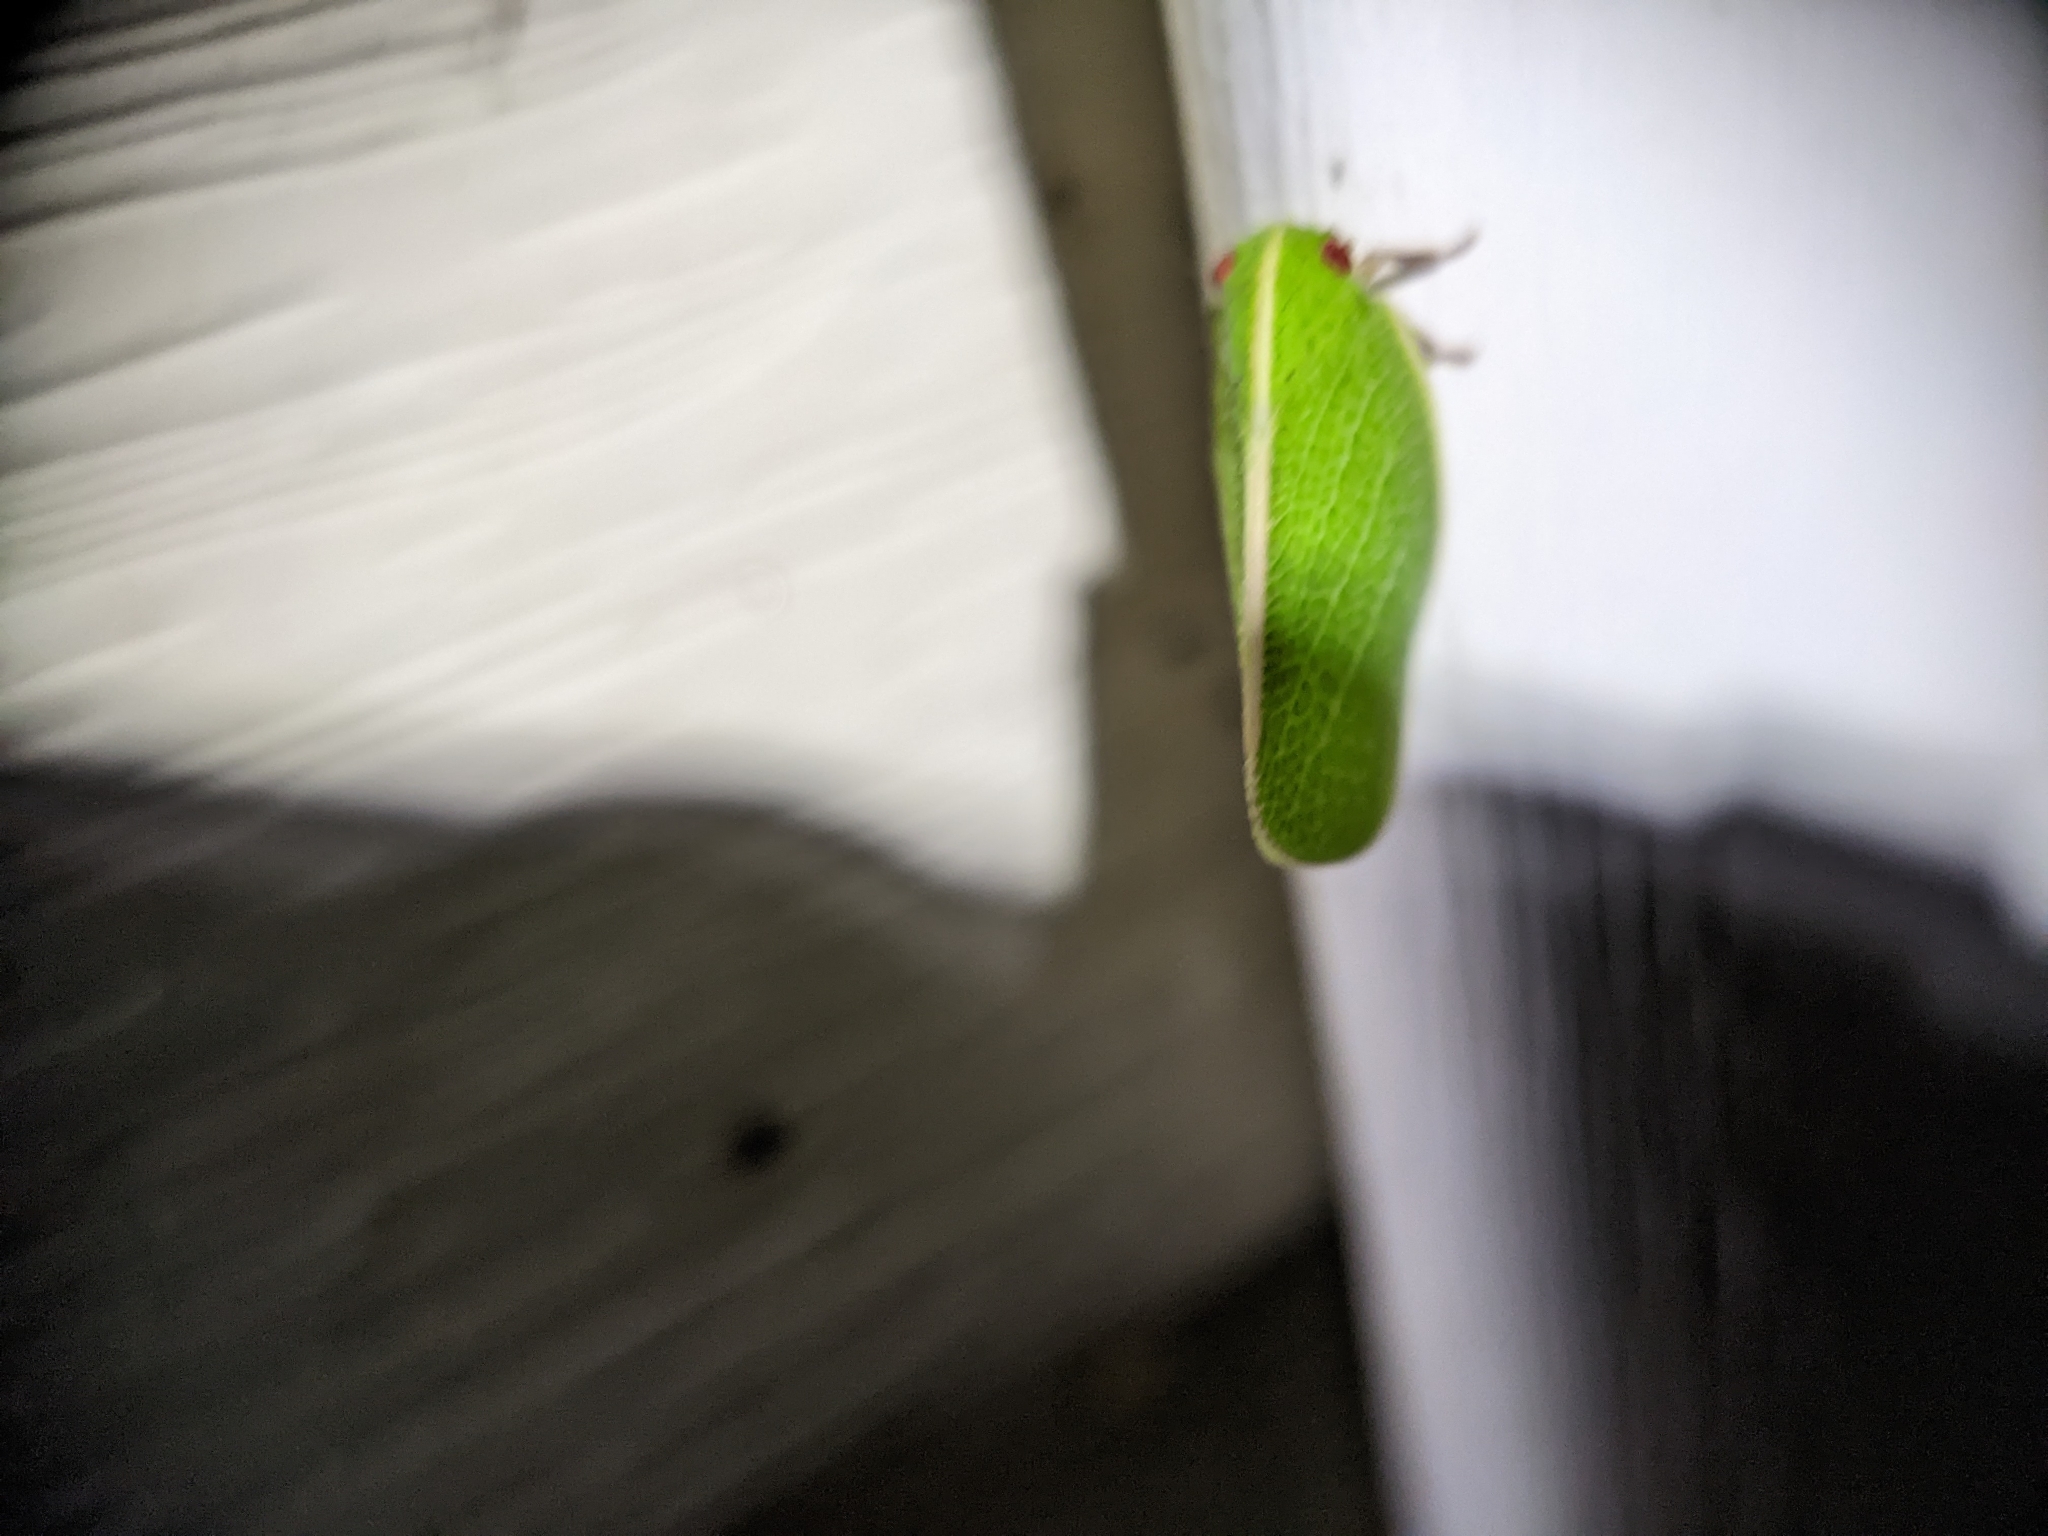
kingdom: Animalia
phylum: Arthropoda
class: Insecta
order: Hemiptera
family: Acanaloniidae
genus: Acanalonia
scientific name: Acanalonia servillei
